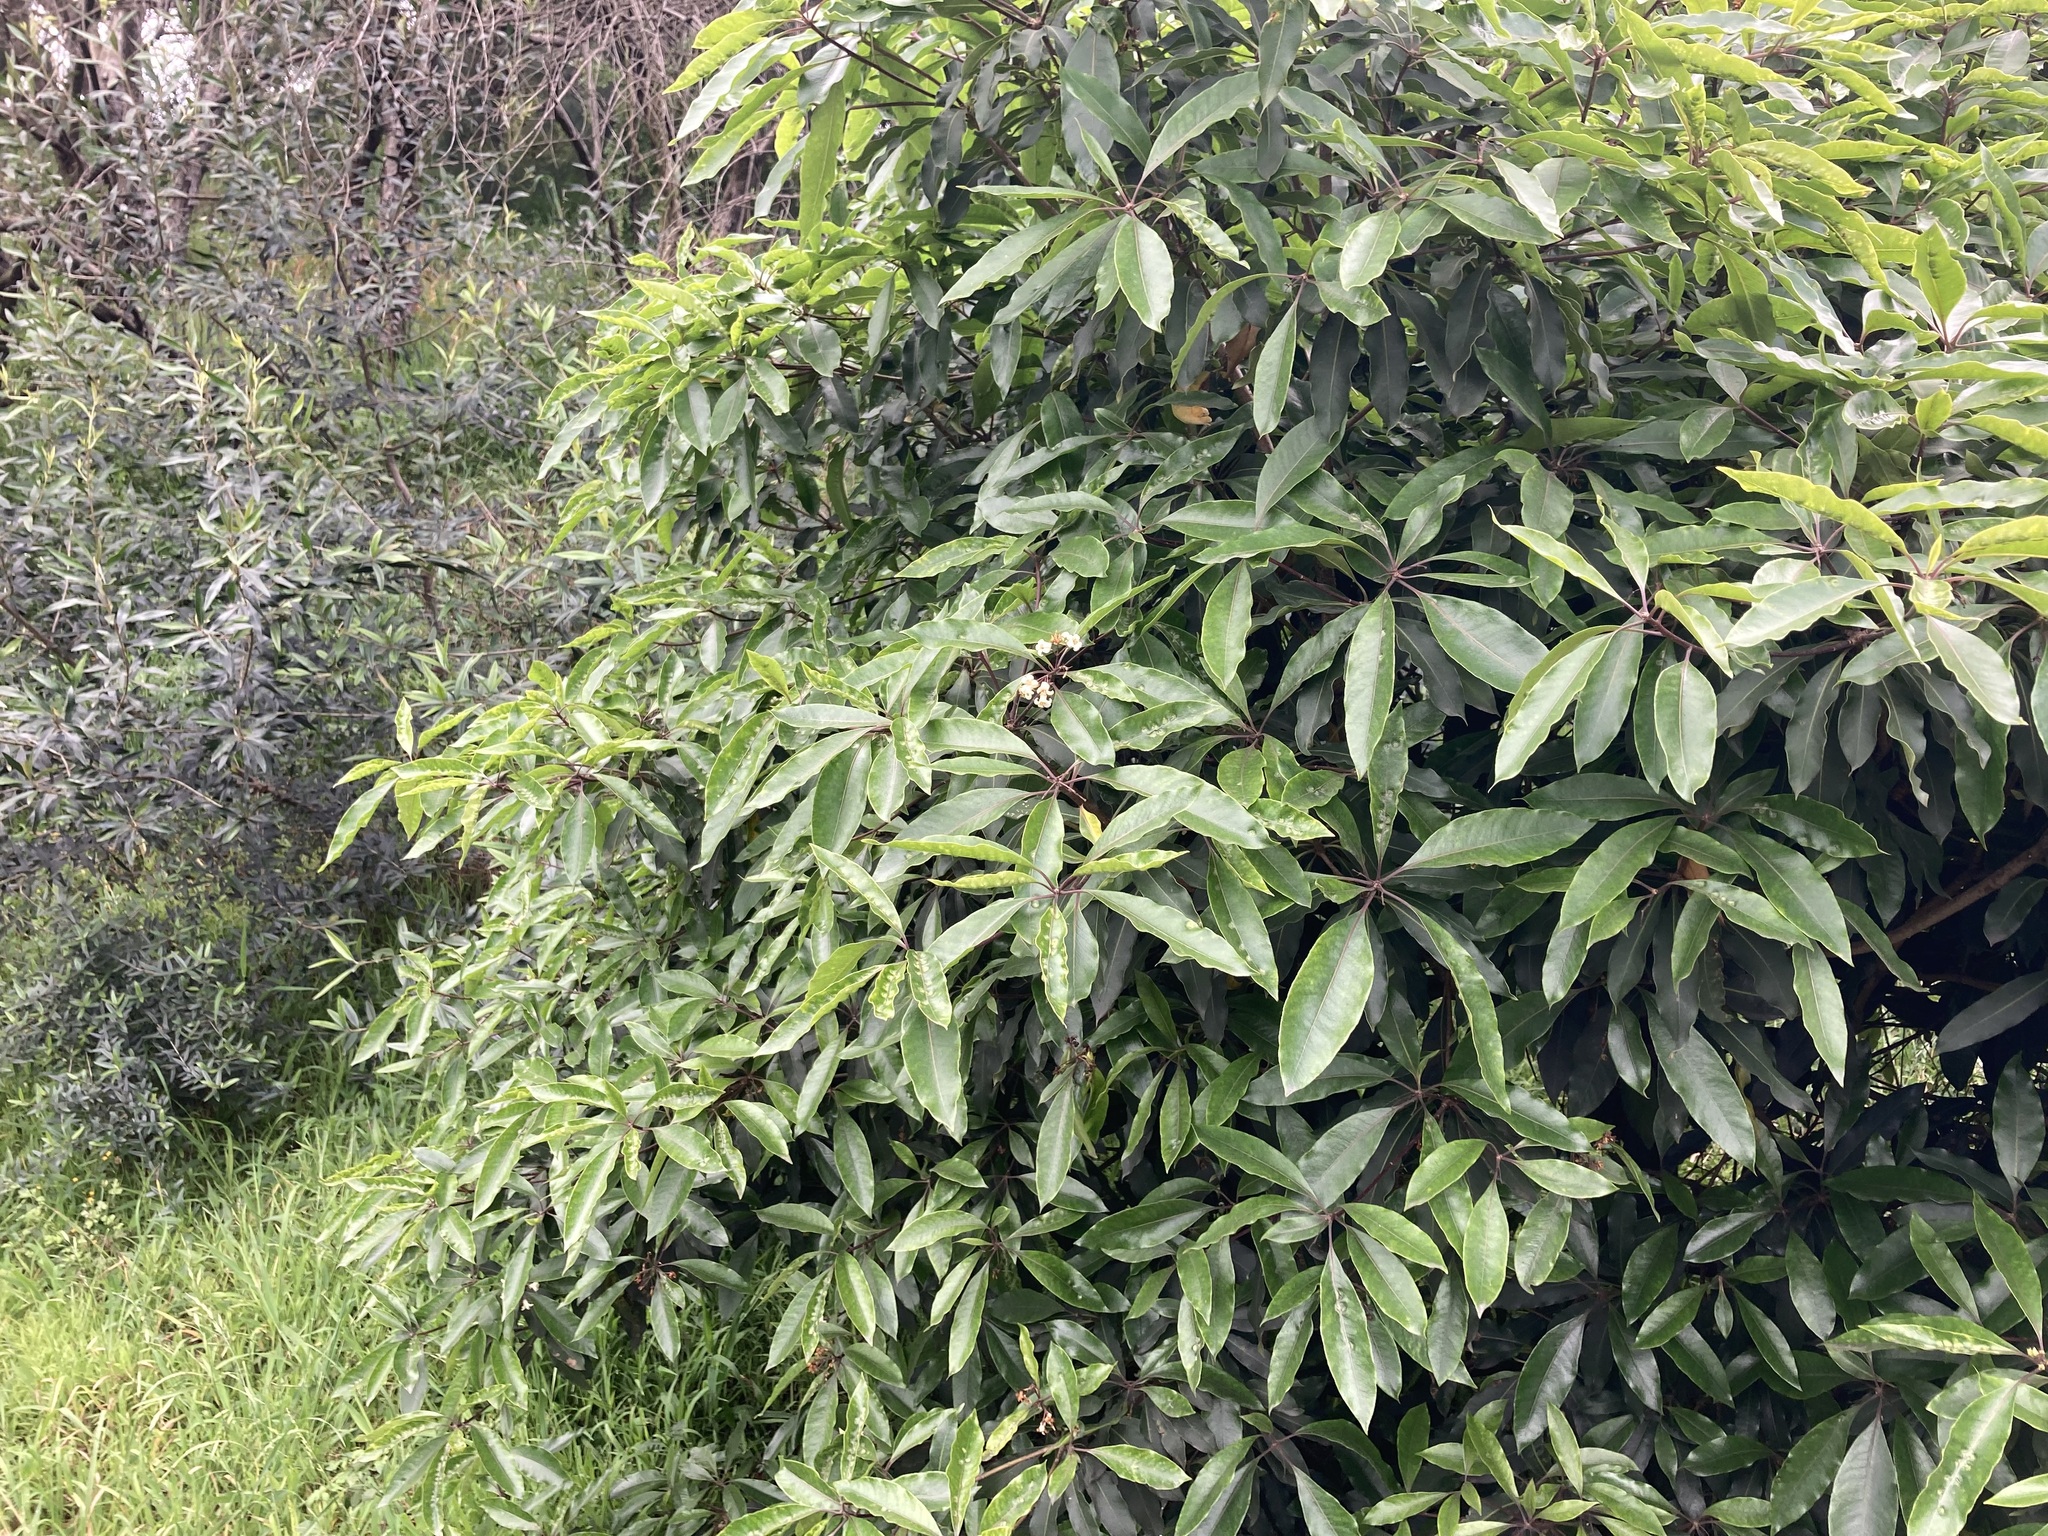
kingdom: Plantae
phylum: Tracheophyta
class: Magnoliopsida
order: Apiales
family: Pittosporaceae
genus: Pittosporum
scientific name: Pittosporum undulatum
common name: Australian cheesewood
